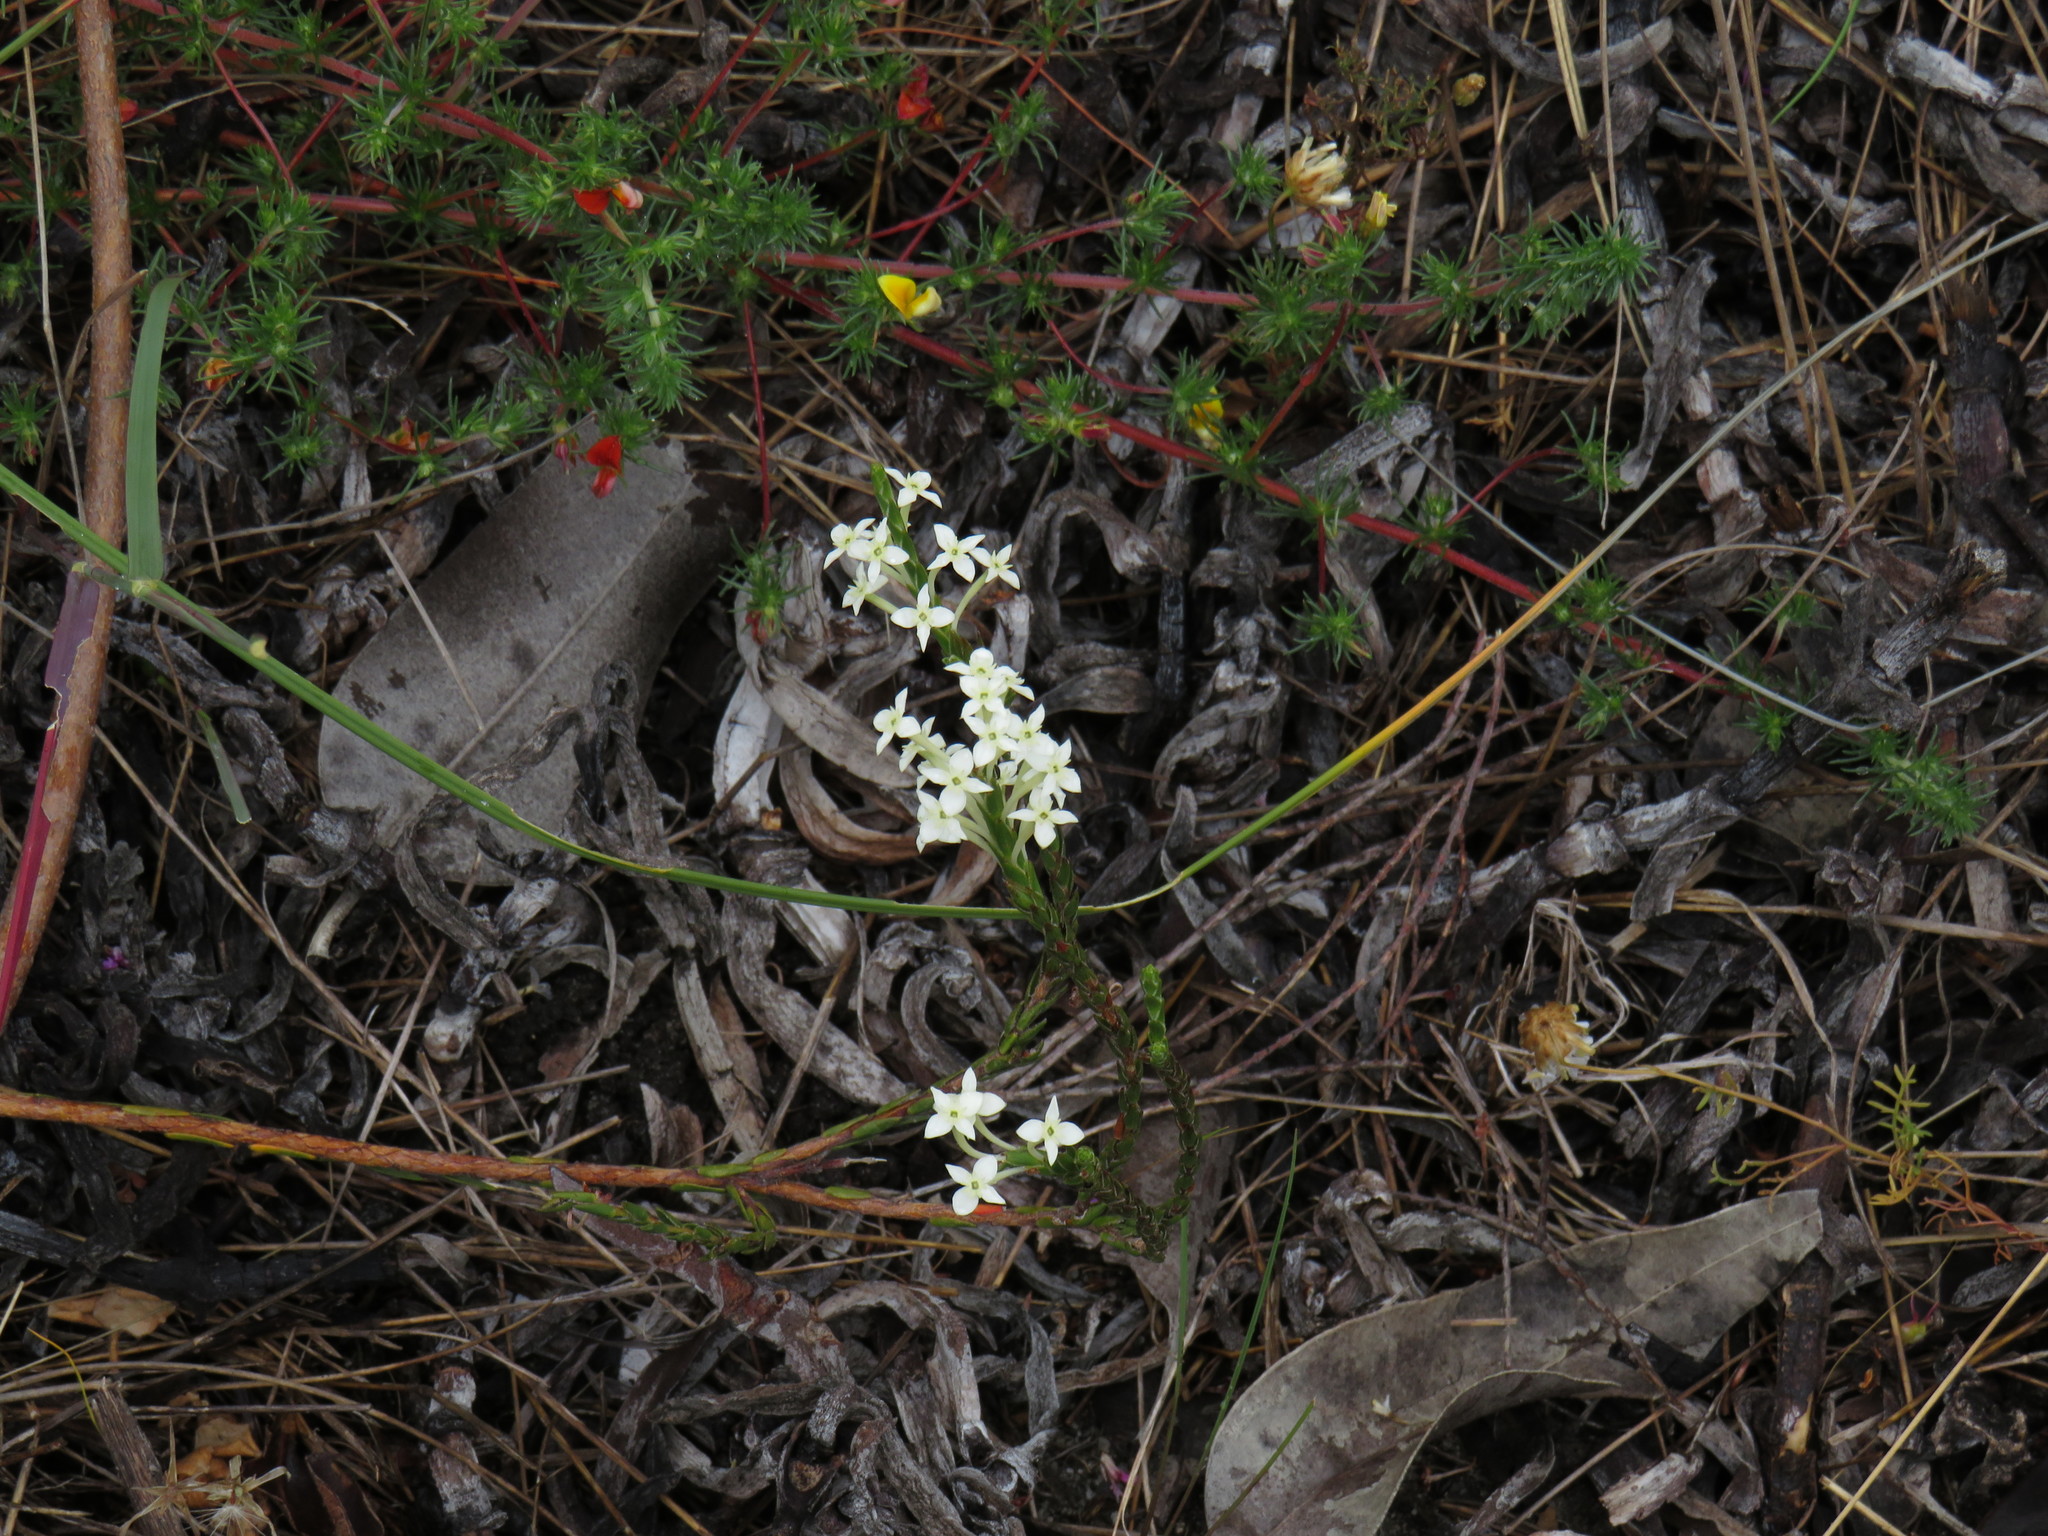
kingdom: Plantae
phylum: Tracheophyta
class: Magnoliopsida
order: Malvales
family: Thymelaeaceae
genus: Struthiola
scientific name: Struthiola dodecandra
